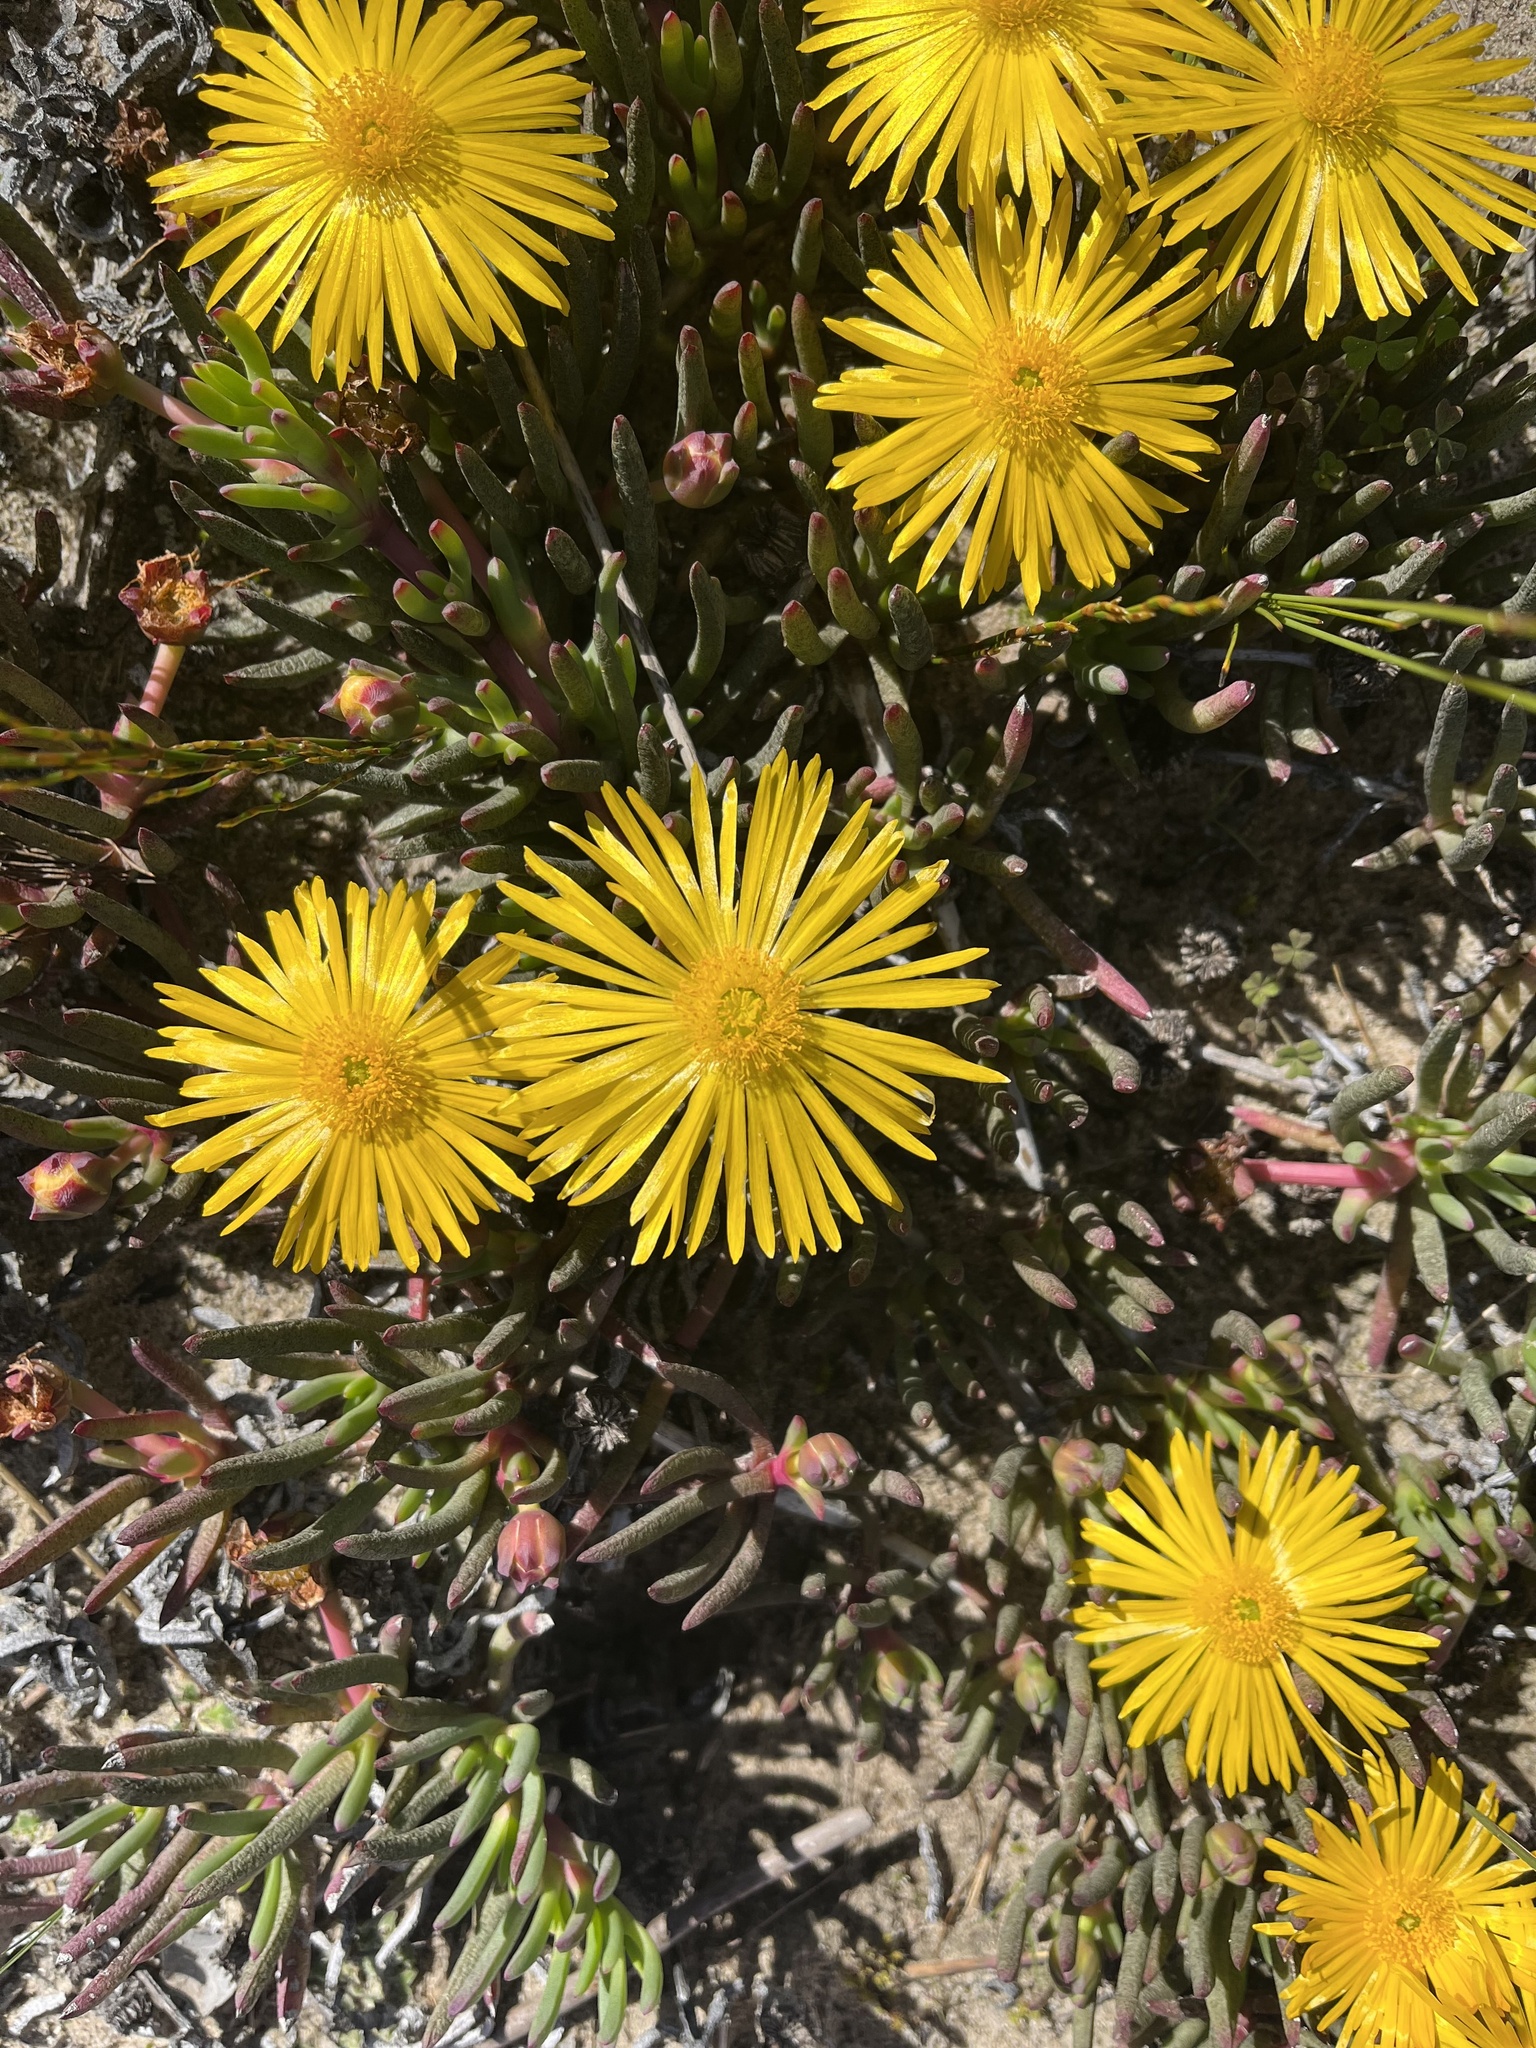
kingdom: Plantae
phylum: Tracheophyta
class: Magnoliopsida
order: Caryophyllales
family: Aizoaceae
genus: Jordaaniella
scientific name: Jordaaniella dubia
